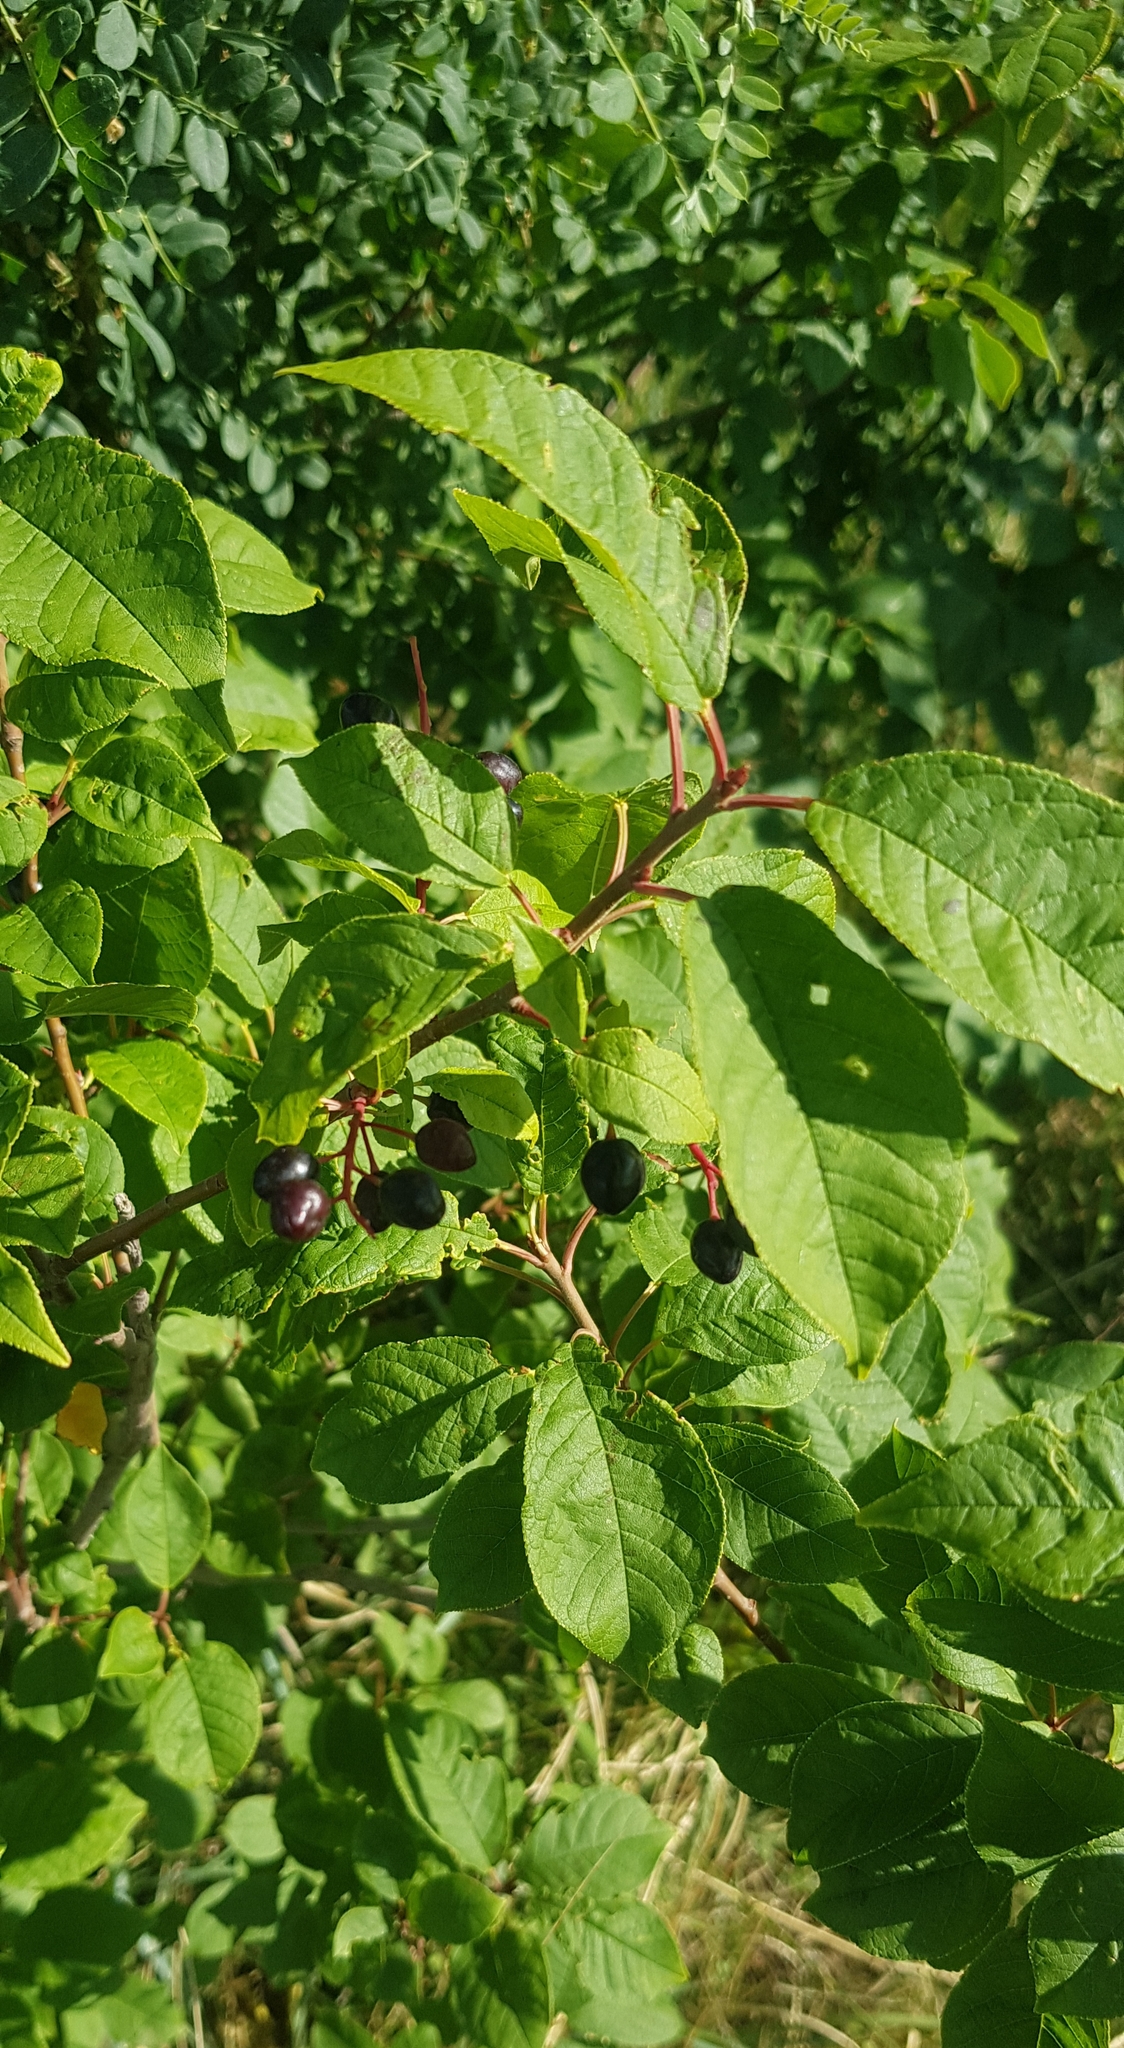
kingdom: Plantae
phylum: Tracheophyta
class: Magnoliopsida
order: Rosales
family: Rosaceae
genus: Prunus
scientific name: Prunus padus
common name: Bird cherry
